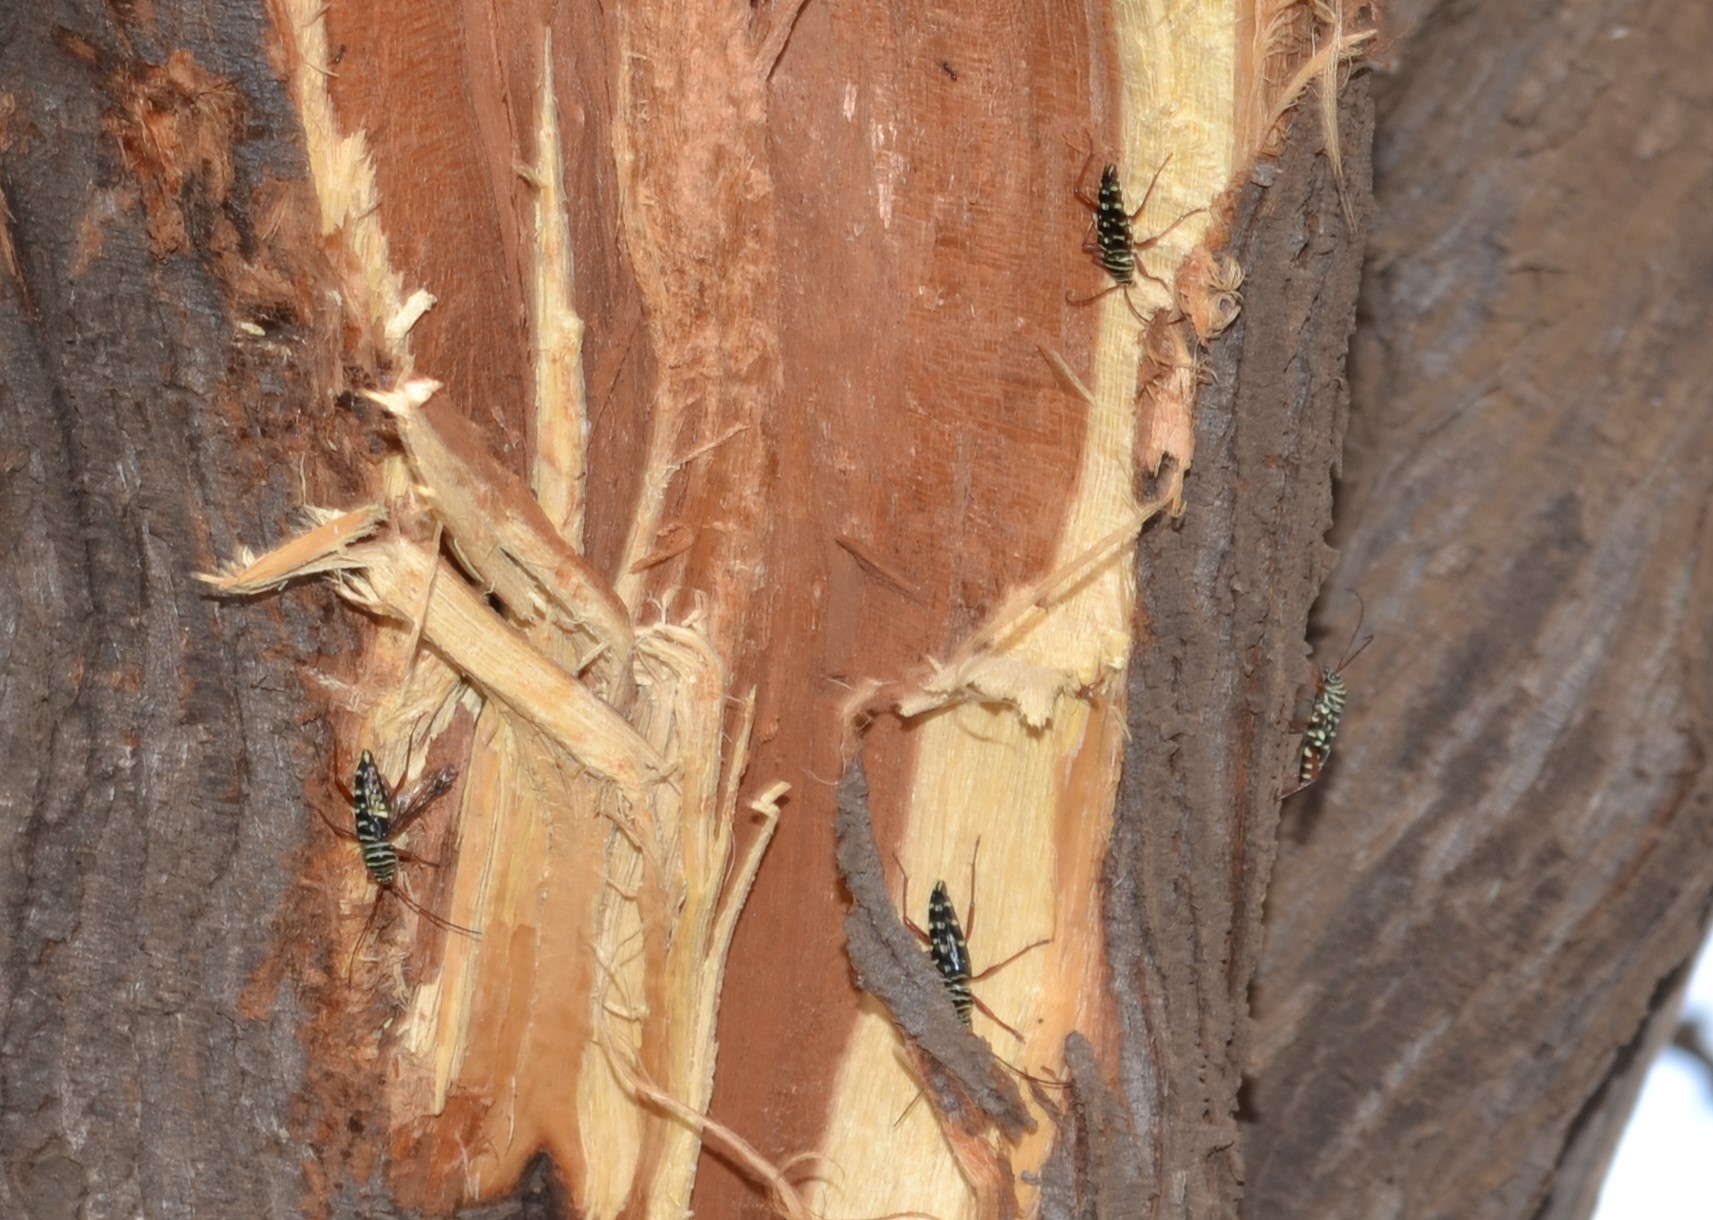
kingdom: Animalia
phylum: Arthropoda
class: Insecta
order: Coleoptera
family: Cerambycidae
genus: Placosternus
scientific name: Placosternus crinicornis
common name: Kiawe round headed borer
